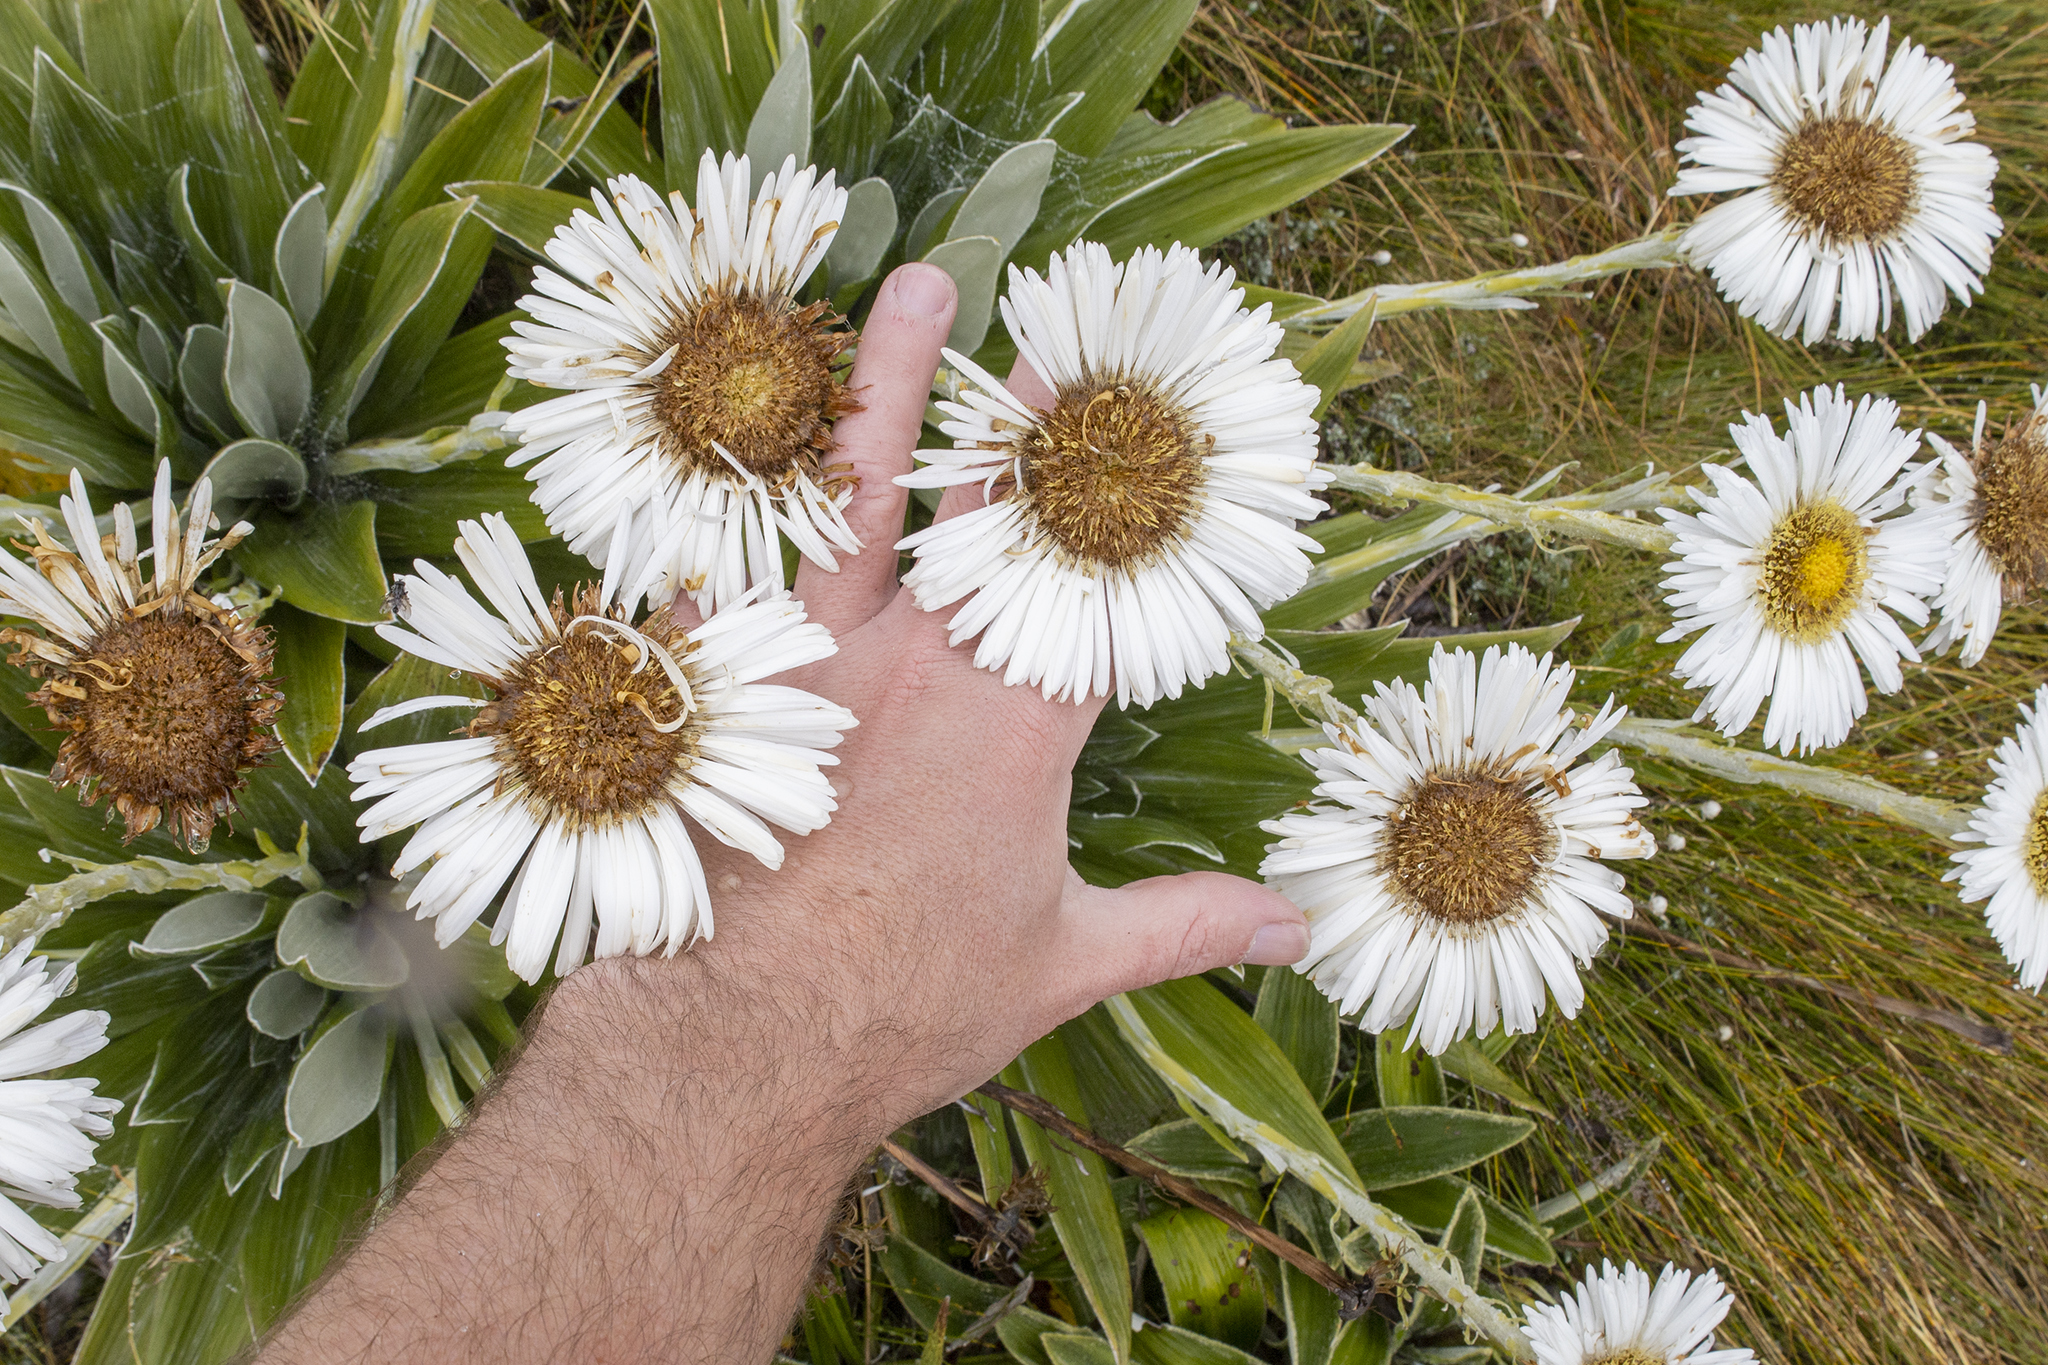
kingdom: Plantae
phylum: Tracheophyta
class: Magnoliopsida
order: Asterales
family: Asteraceae
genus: Celmisia
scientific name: Celmisia semicordata
